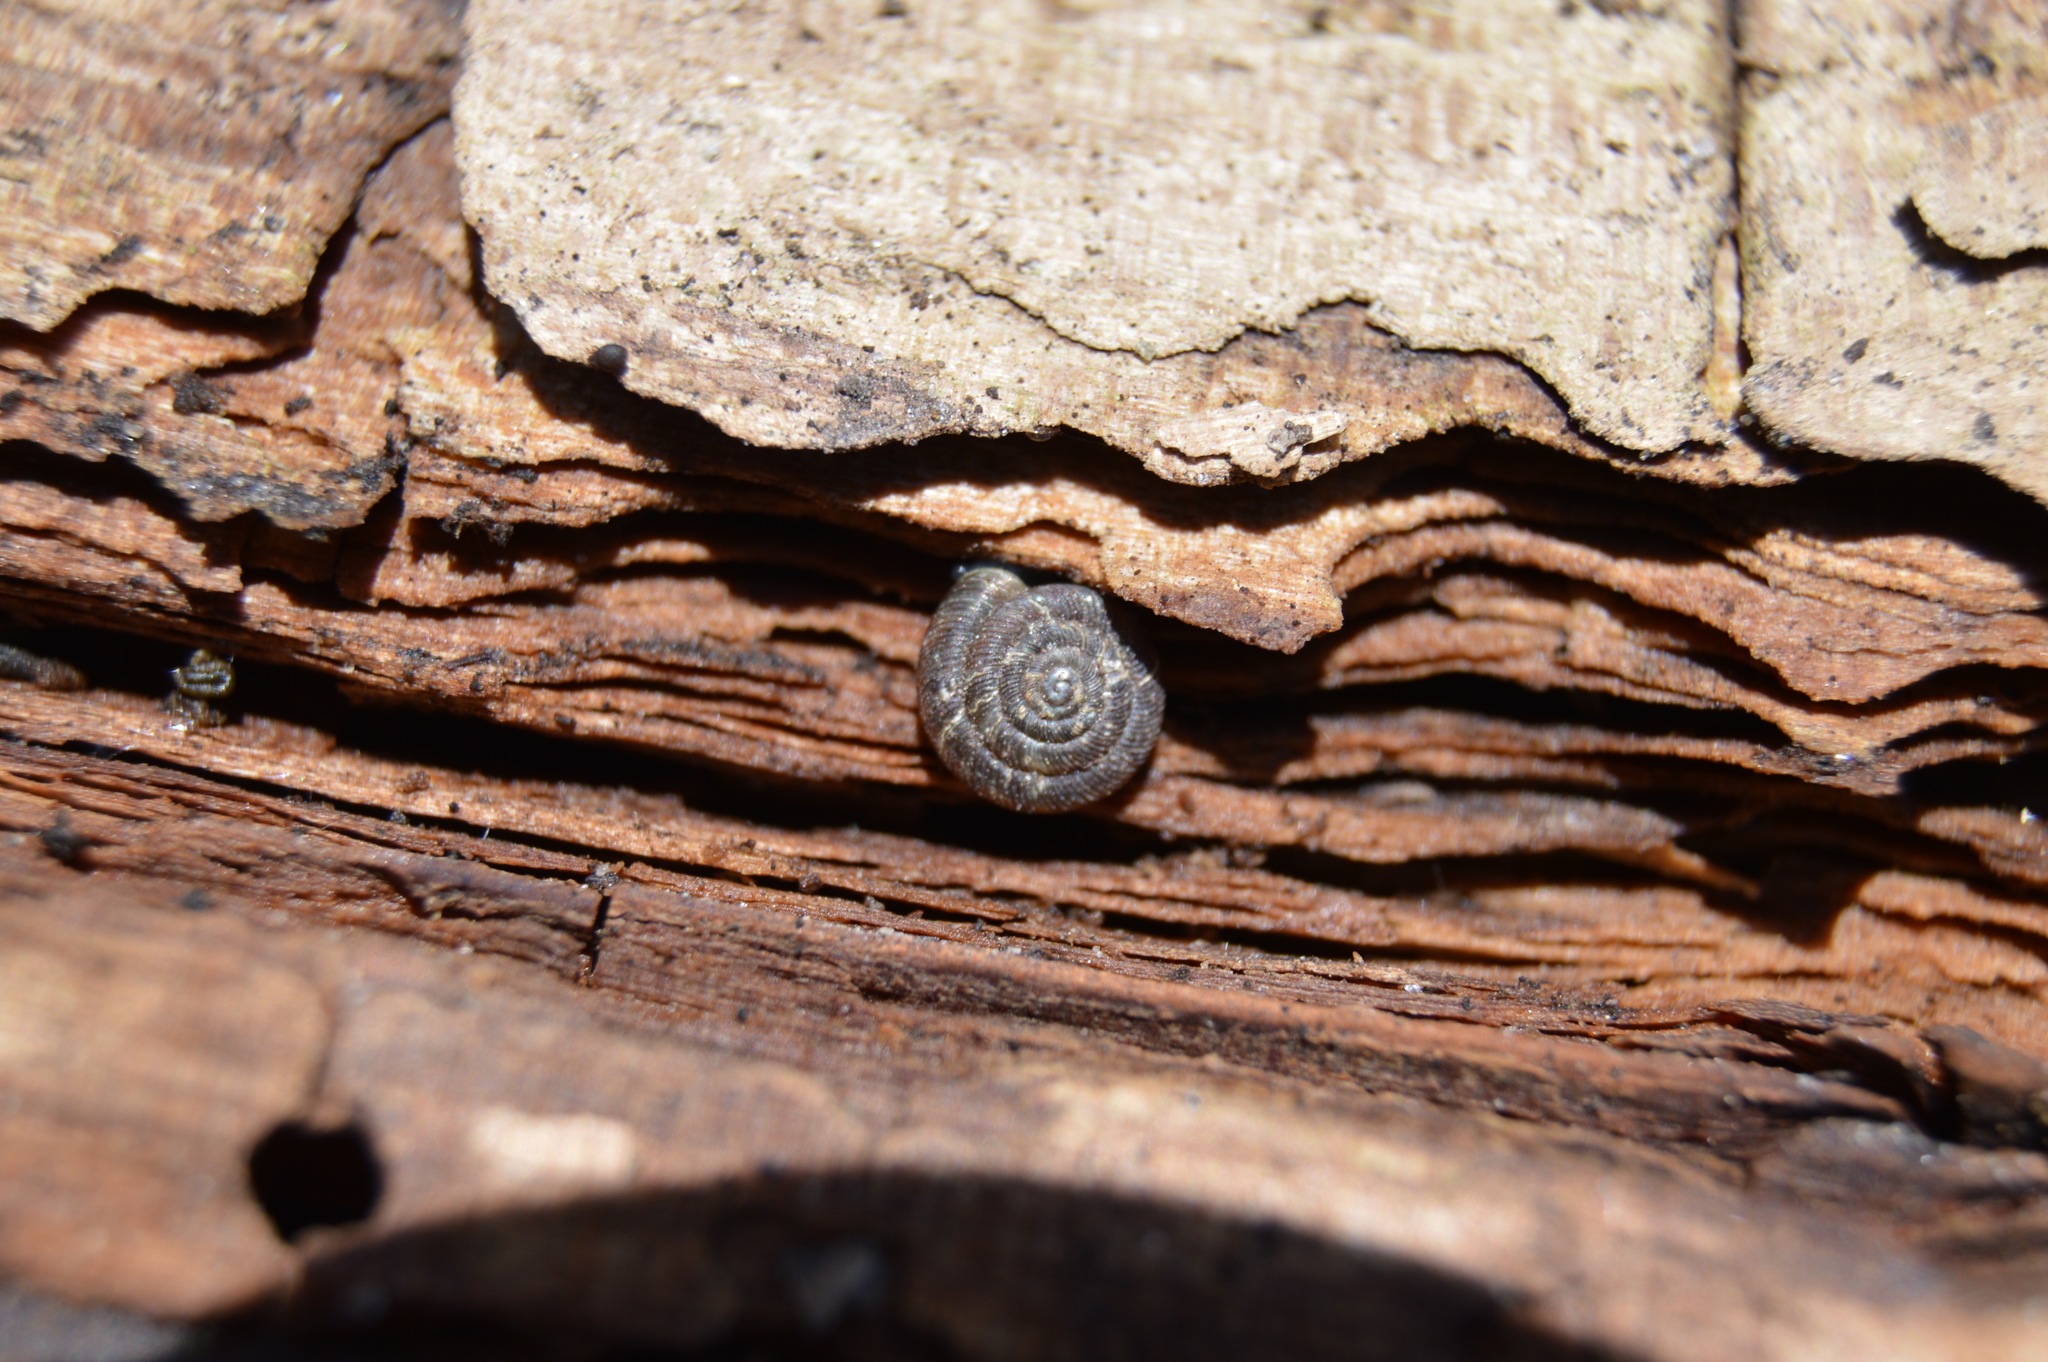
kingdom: Animalia
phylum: Mollusca
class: Gastropoda
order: Stylommatophora
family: Discidae
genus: Discus
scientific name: Discus rotundatus
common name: Rounded snail
